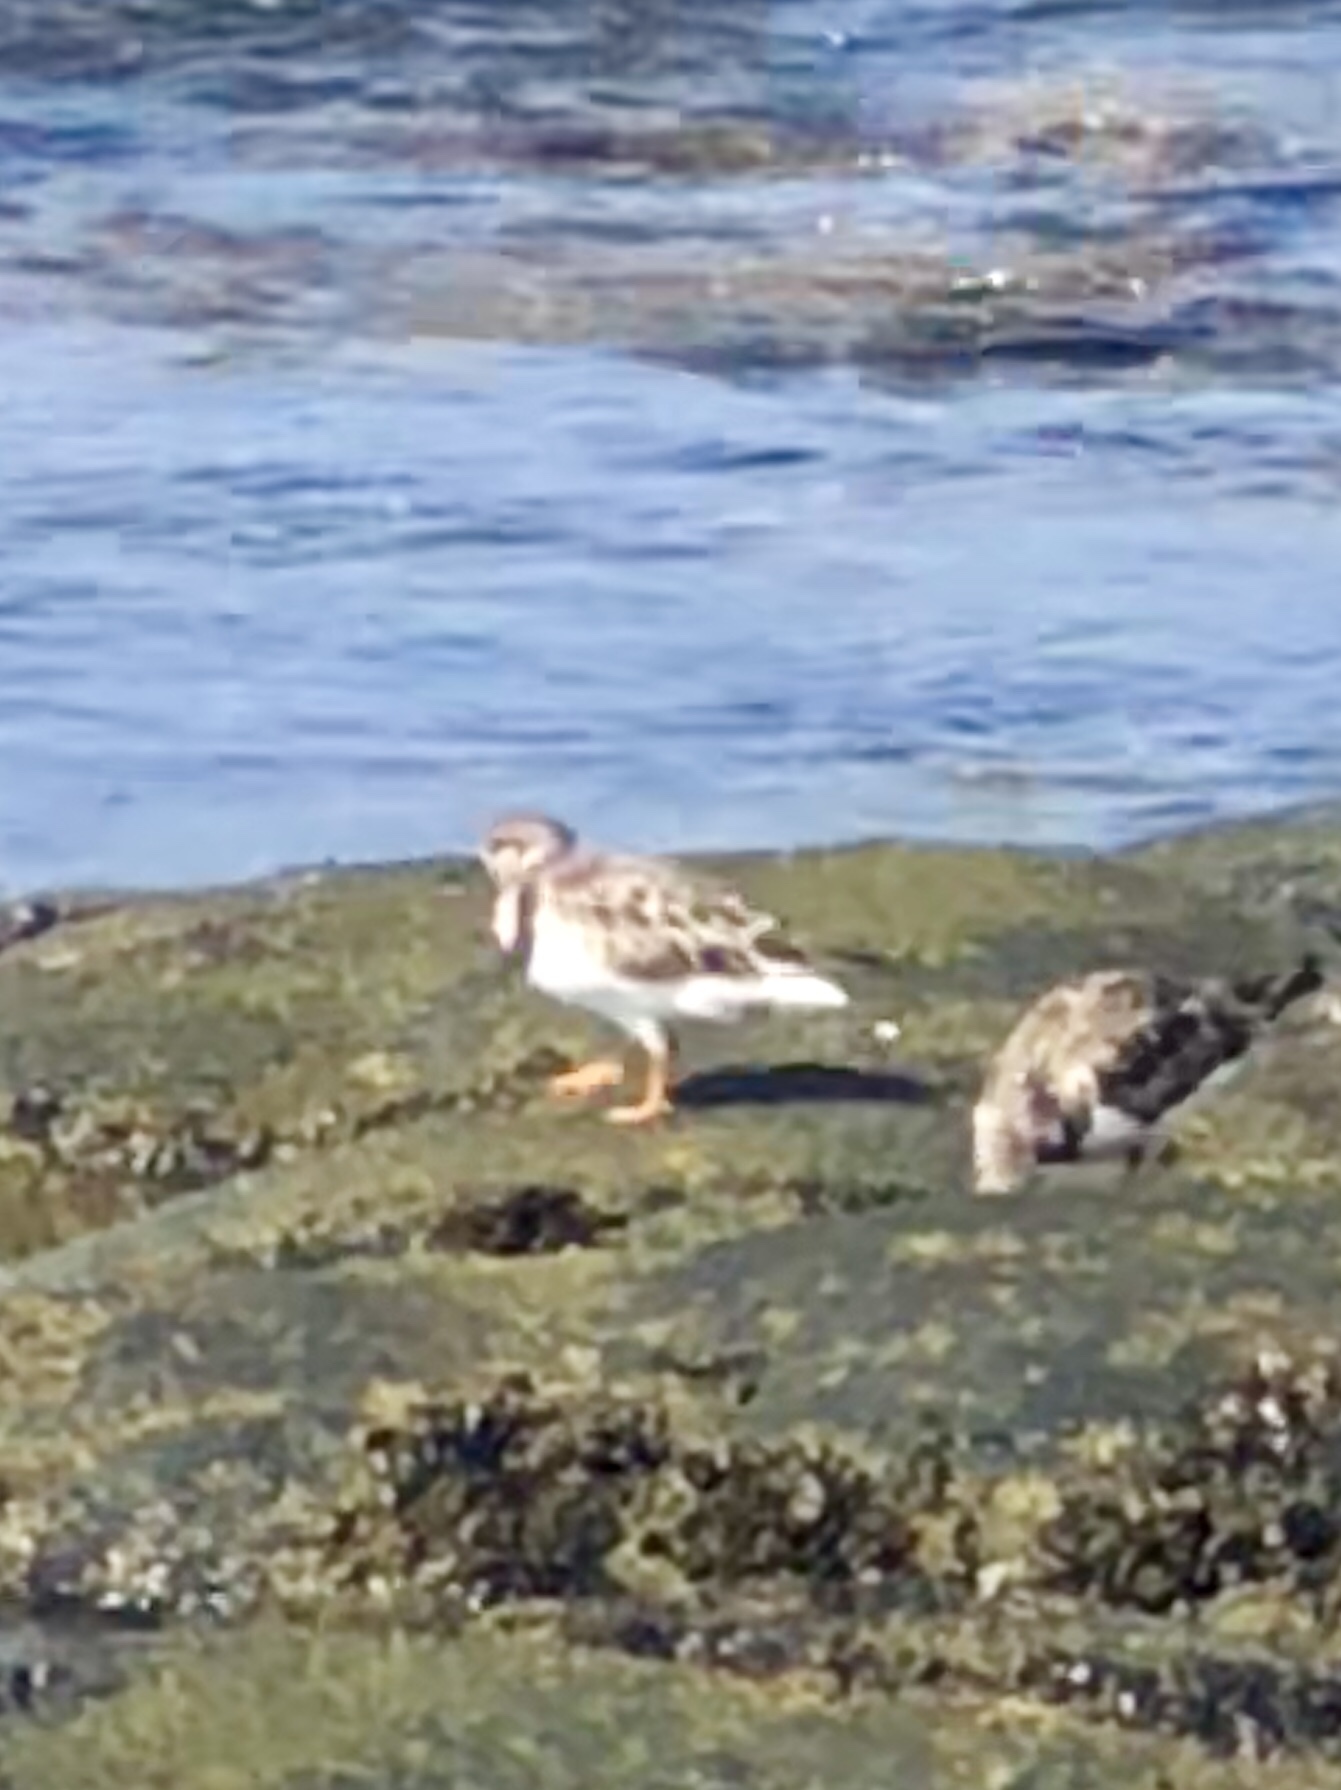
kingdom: Animalia
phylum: Chordata
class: Aves
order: Charadriiformes
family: Scolopacidae
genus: Arenaria
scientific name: Arenaria interpres
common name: Ruddy turnstone
